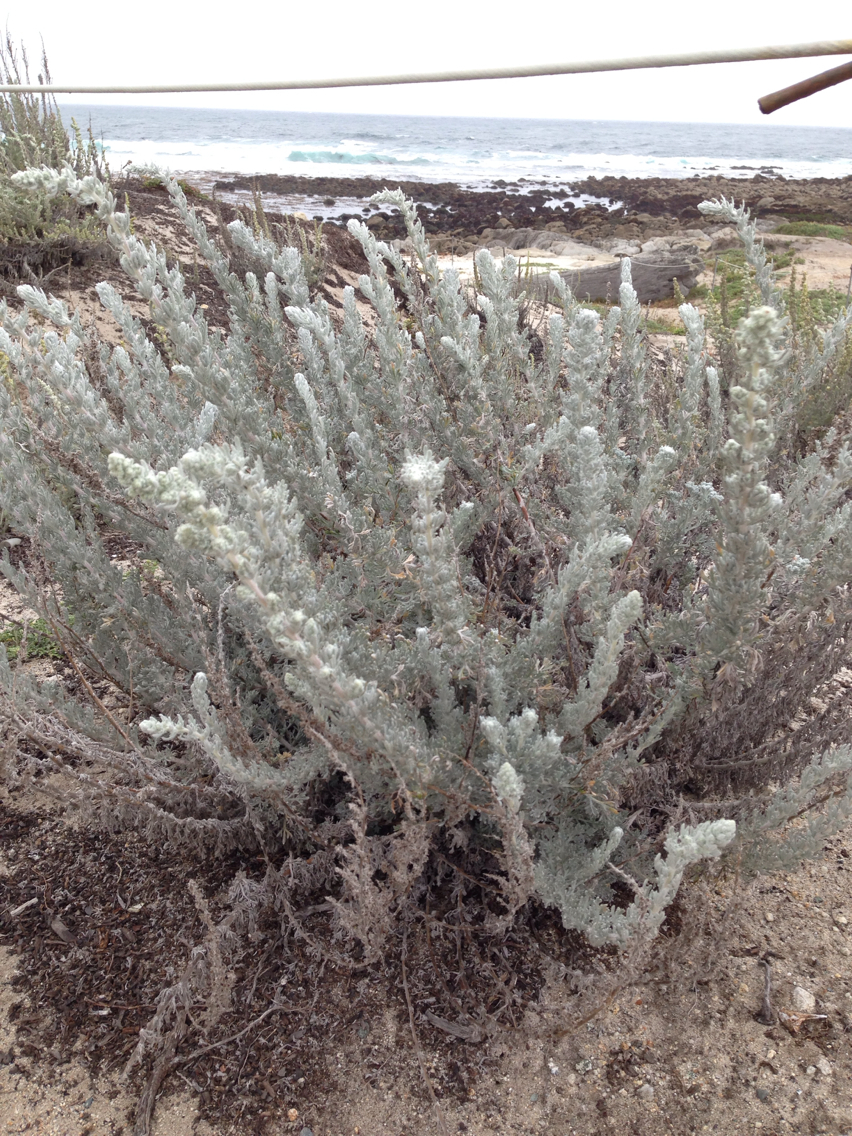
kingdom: Plantae
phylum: Tracheophyta
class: Magnoliopsida
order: Asterales
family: Asteraceae
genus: Artemisia
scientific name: Artemisia pycnocephala
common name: Coastal sagewort
